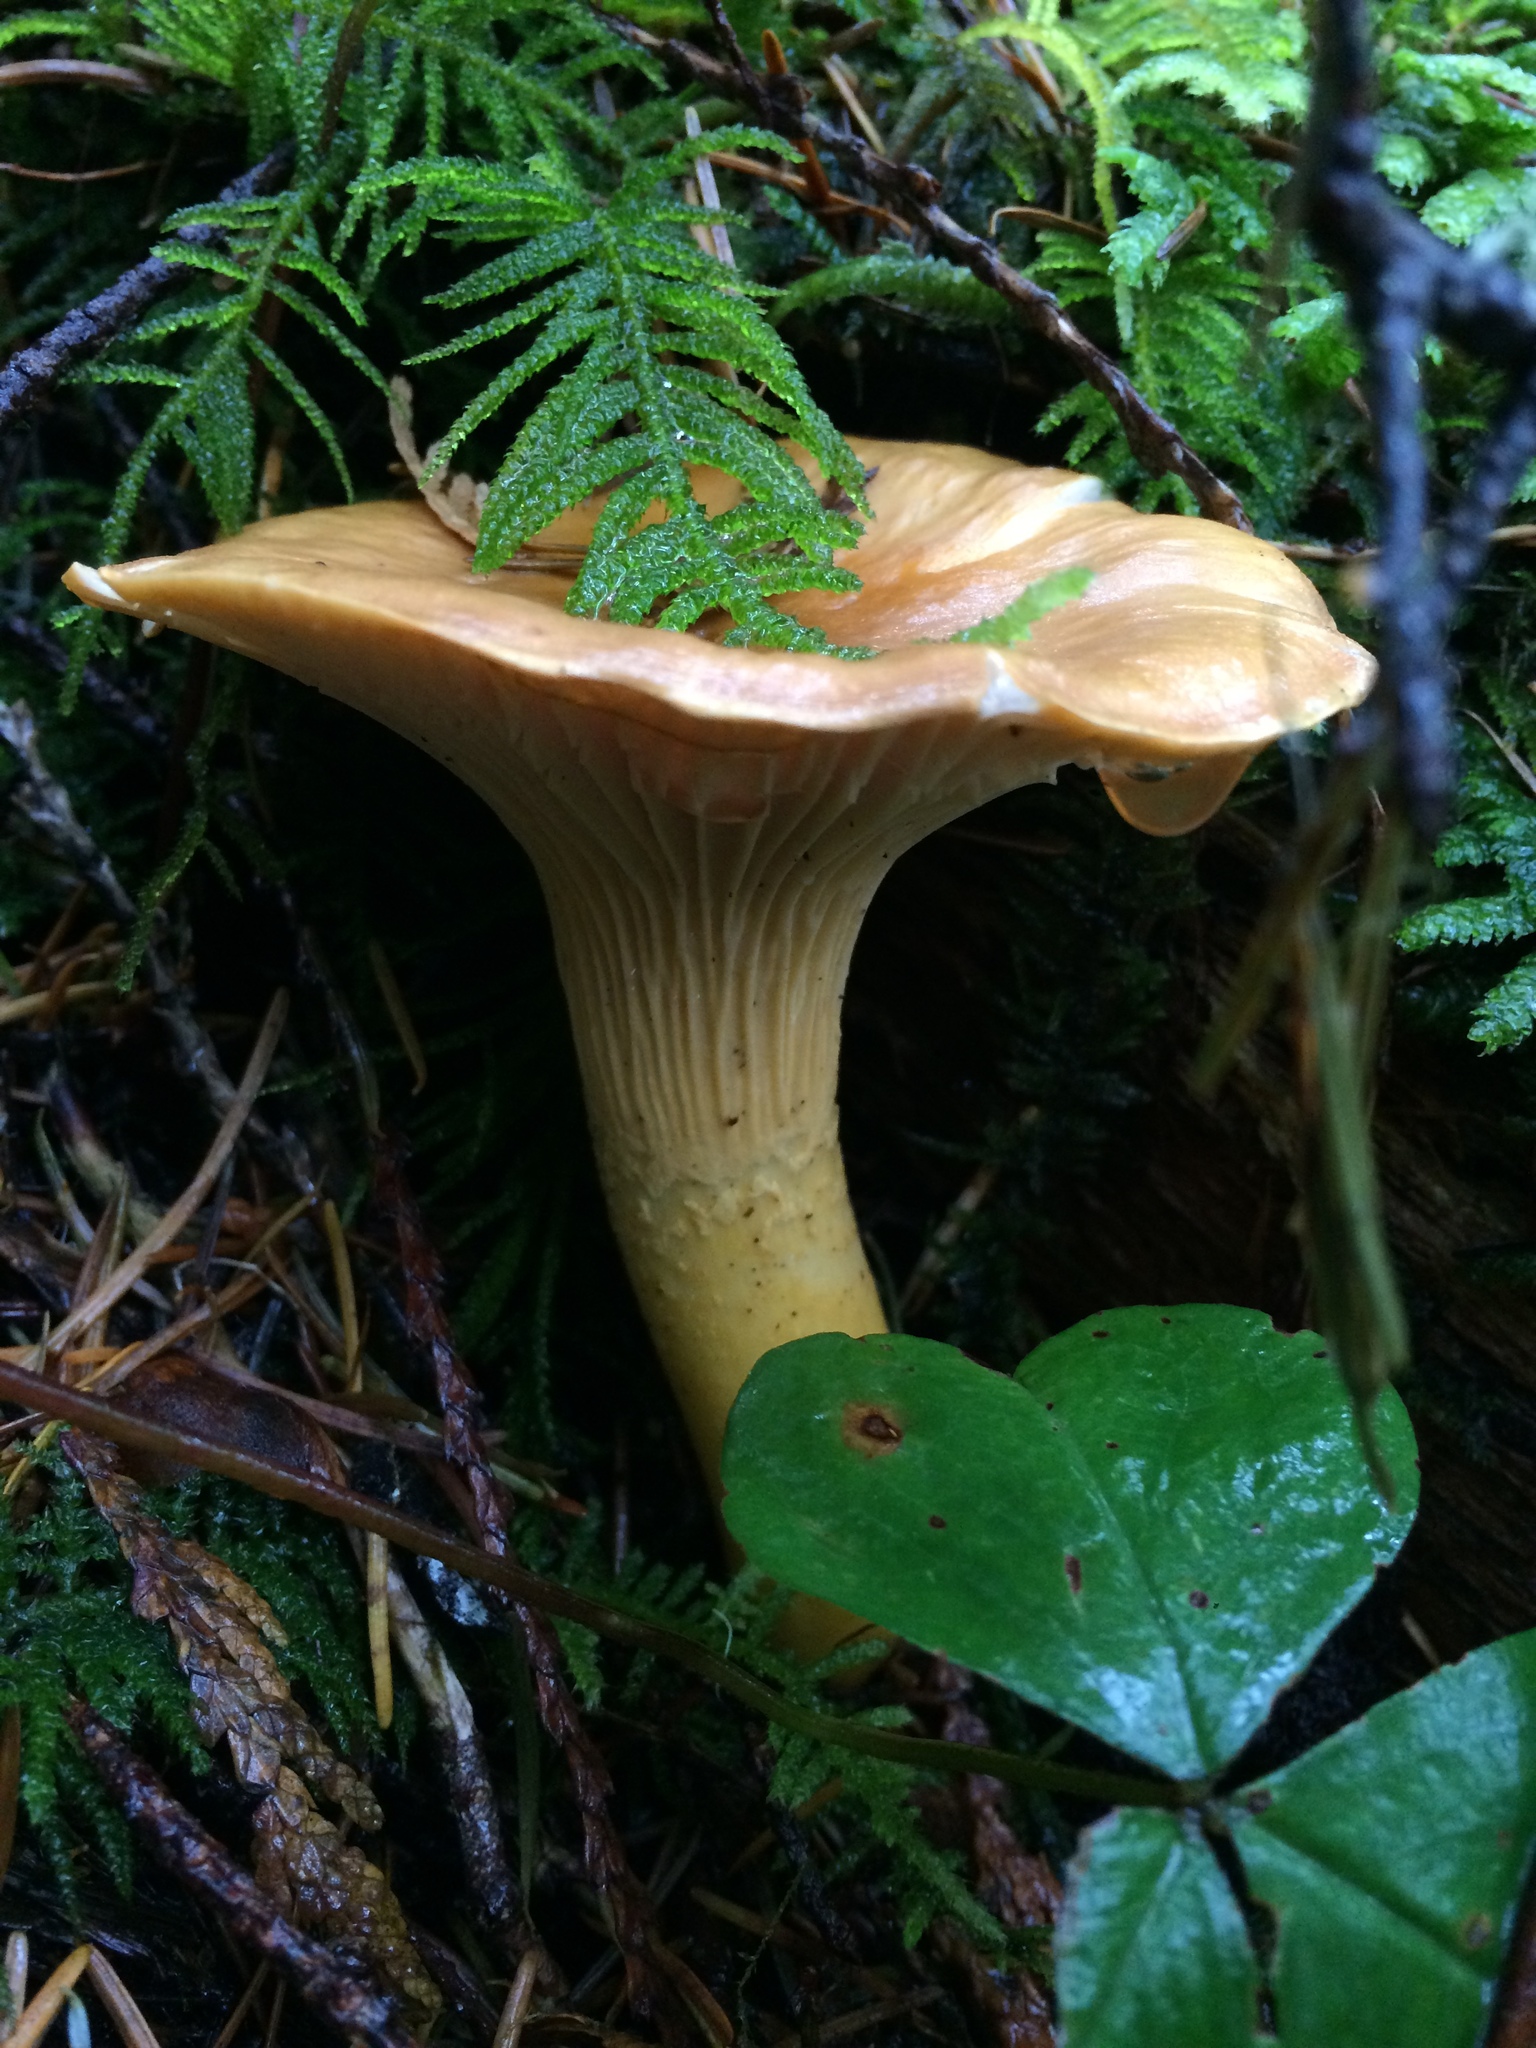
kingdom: Fungi
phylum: Basidiomycota
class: Agaricomycetes
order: Cantharellales
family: Hydnaceae
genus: Cantharellus
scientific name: Cantharellus formosus
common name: Pacific golden chanterelle
